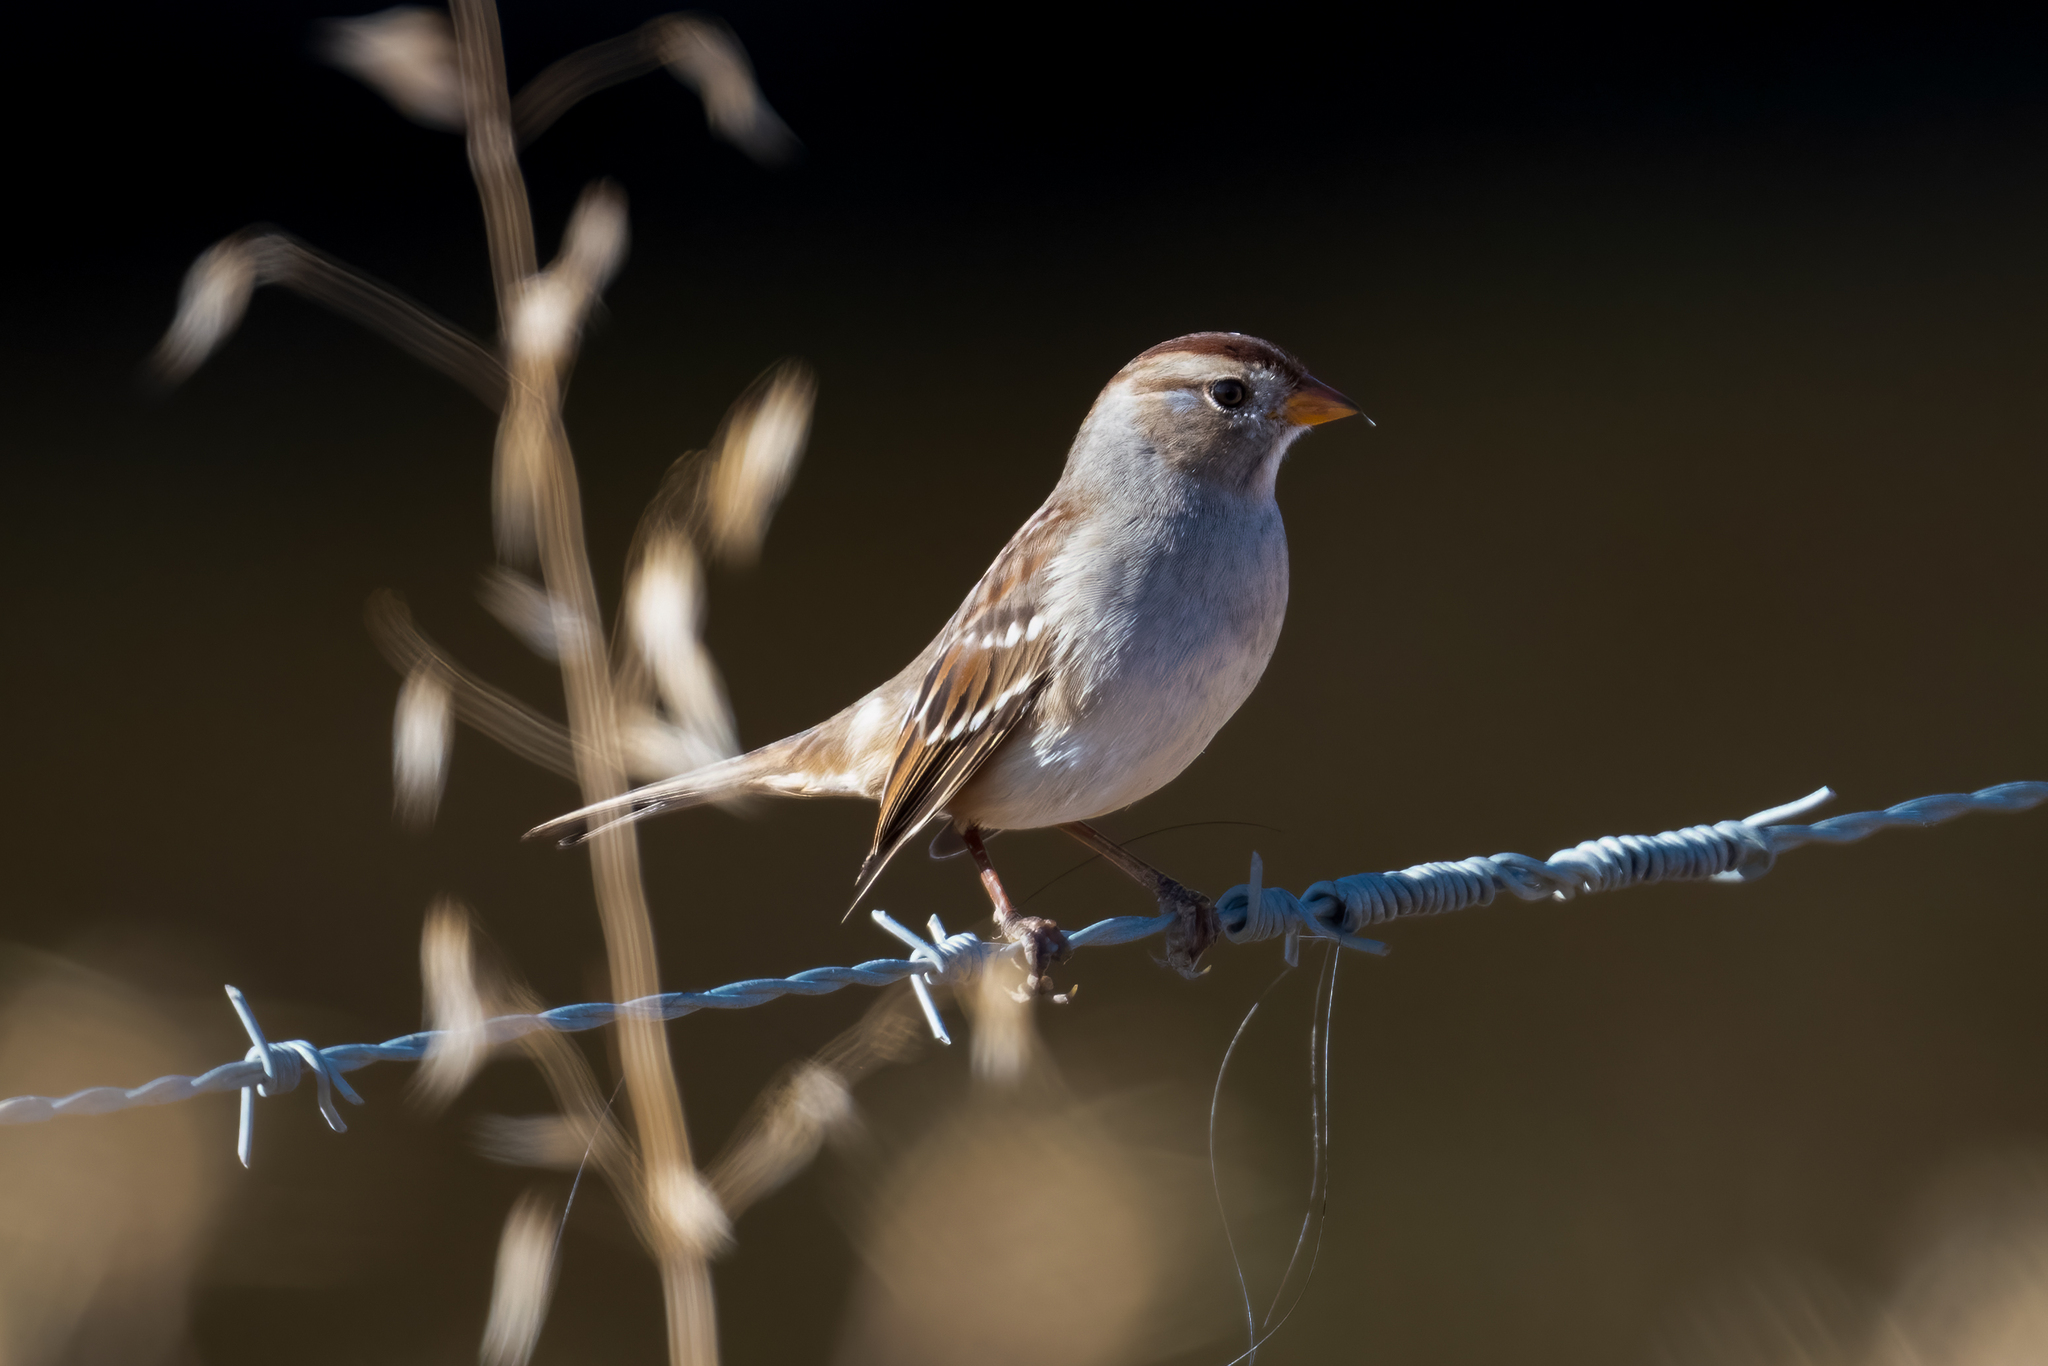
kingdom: Animalia
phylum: Chordata
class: Aves
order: Passeriformes
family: Passerellidae
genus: Zonotrichia
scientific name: Zonotrichia leucophrys
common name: White-crowned sparrow
